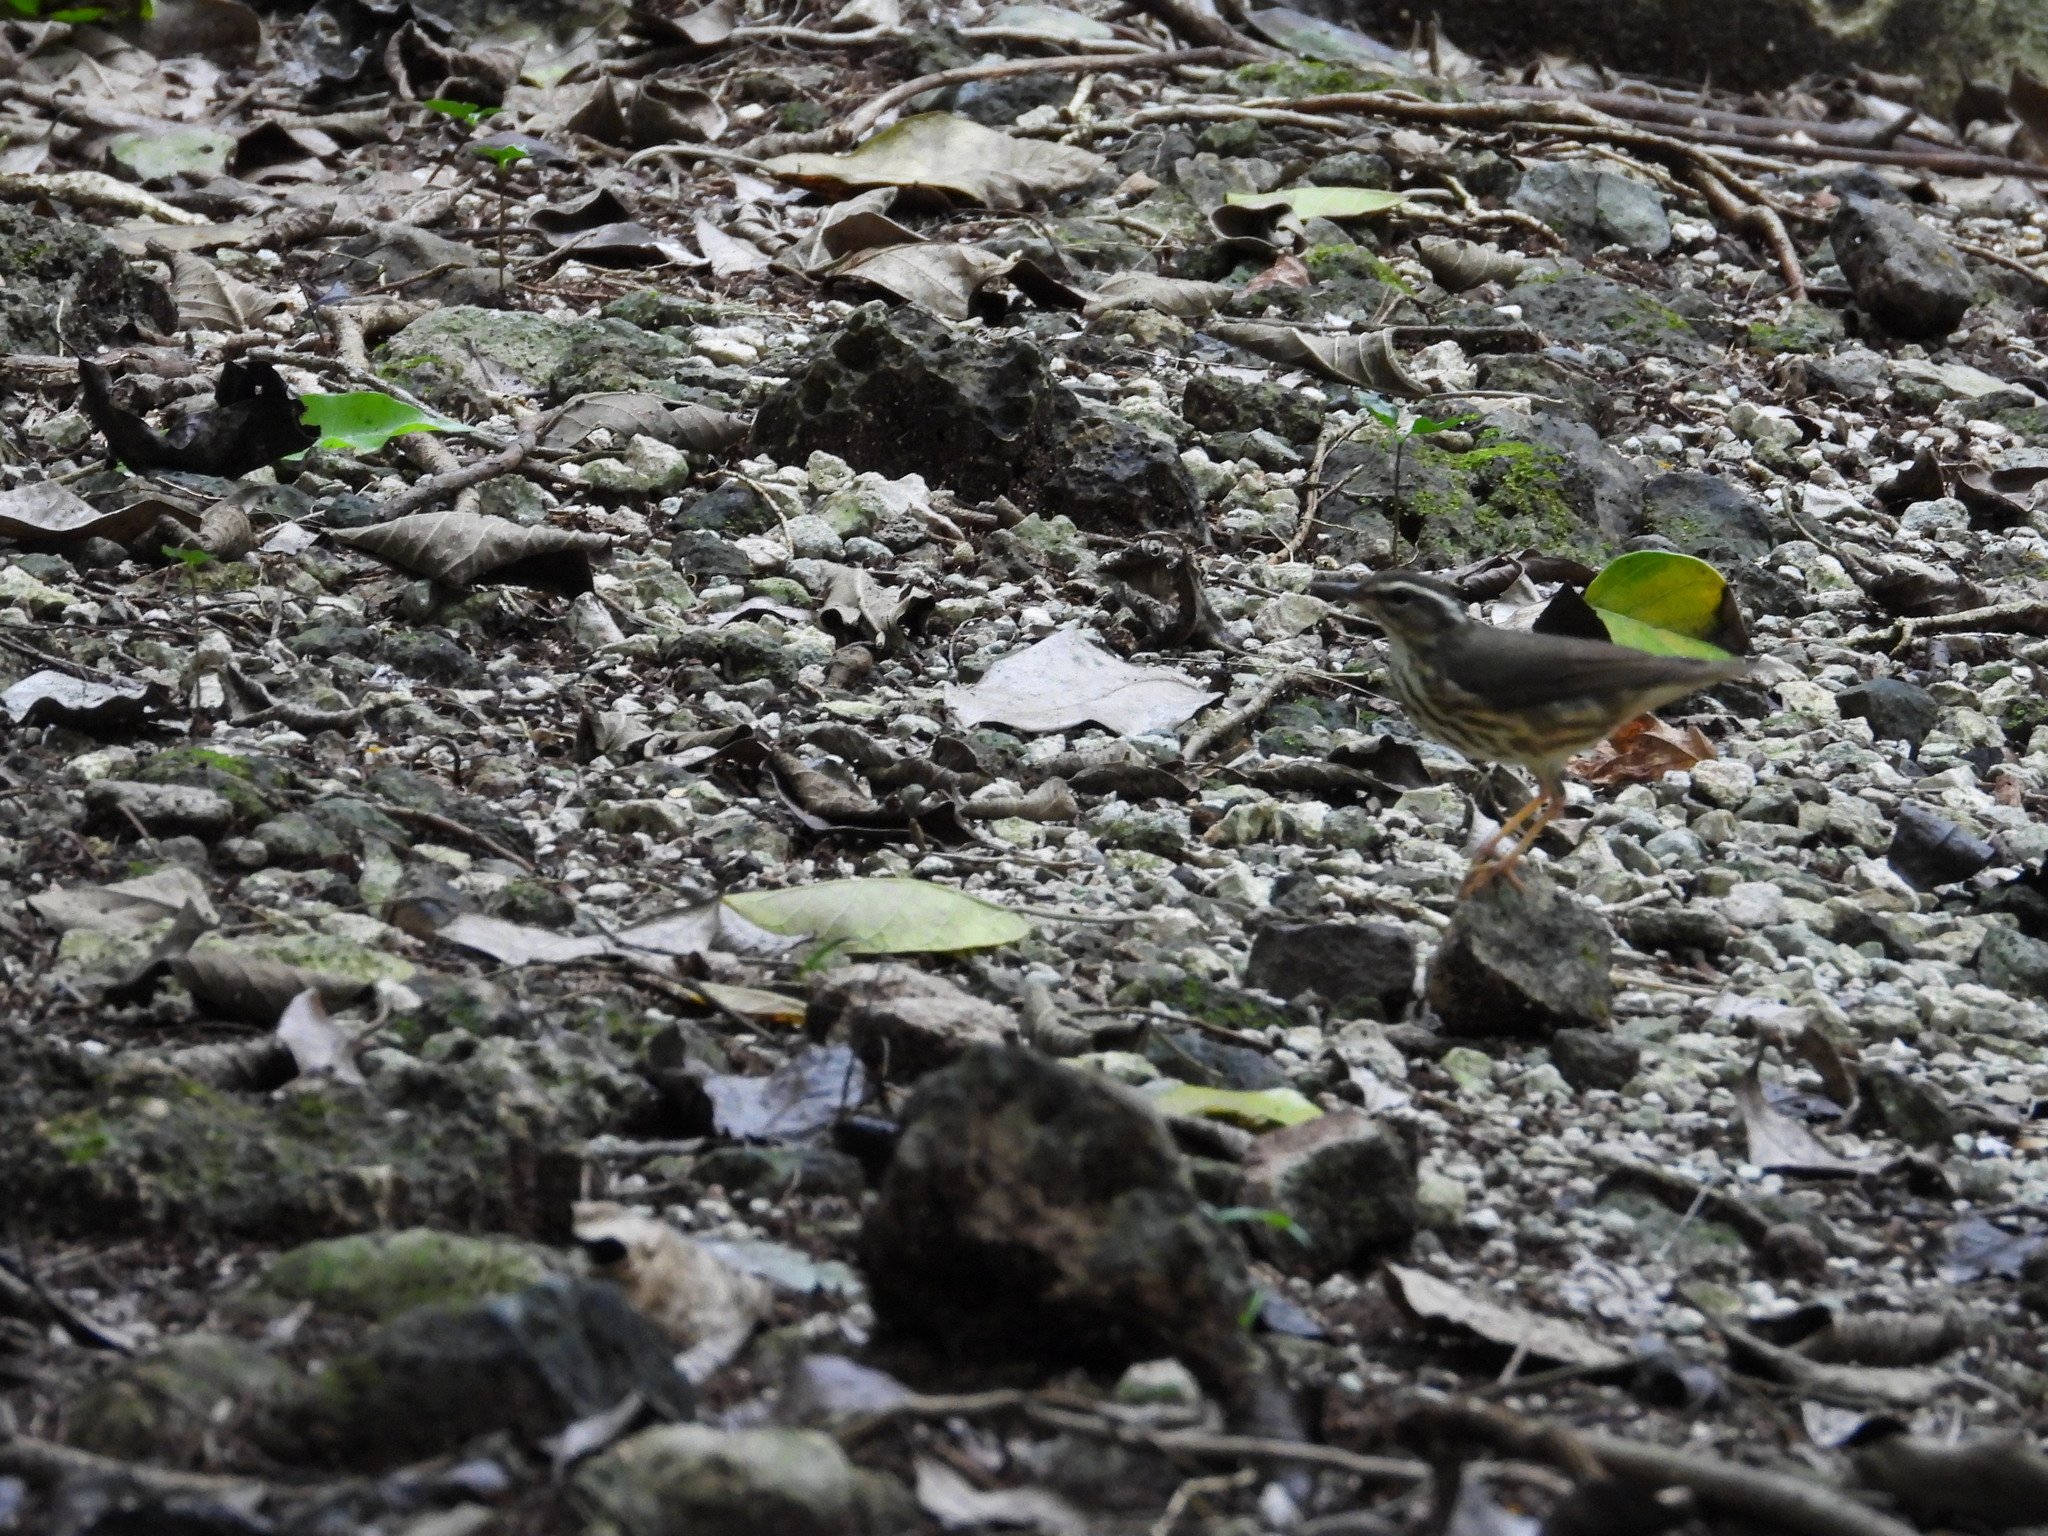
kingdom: Animalia
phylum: Chordata
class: Aves
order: Passeriformes
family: Parulidae
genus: Parkesia
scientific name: Parkesia motacilla
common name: Louisiana waterthrush
